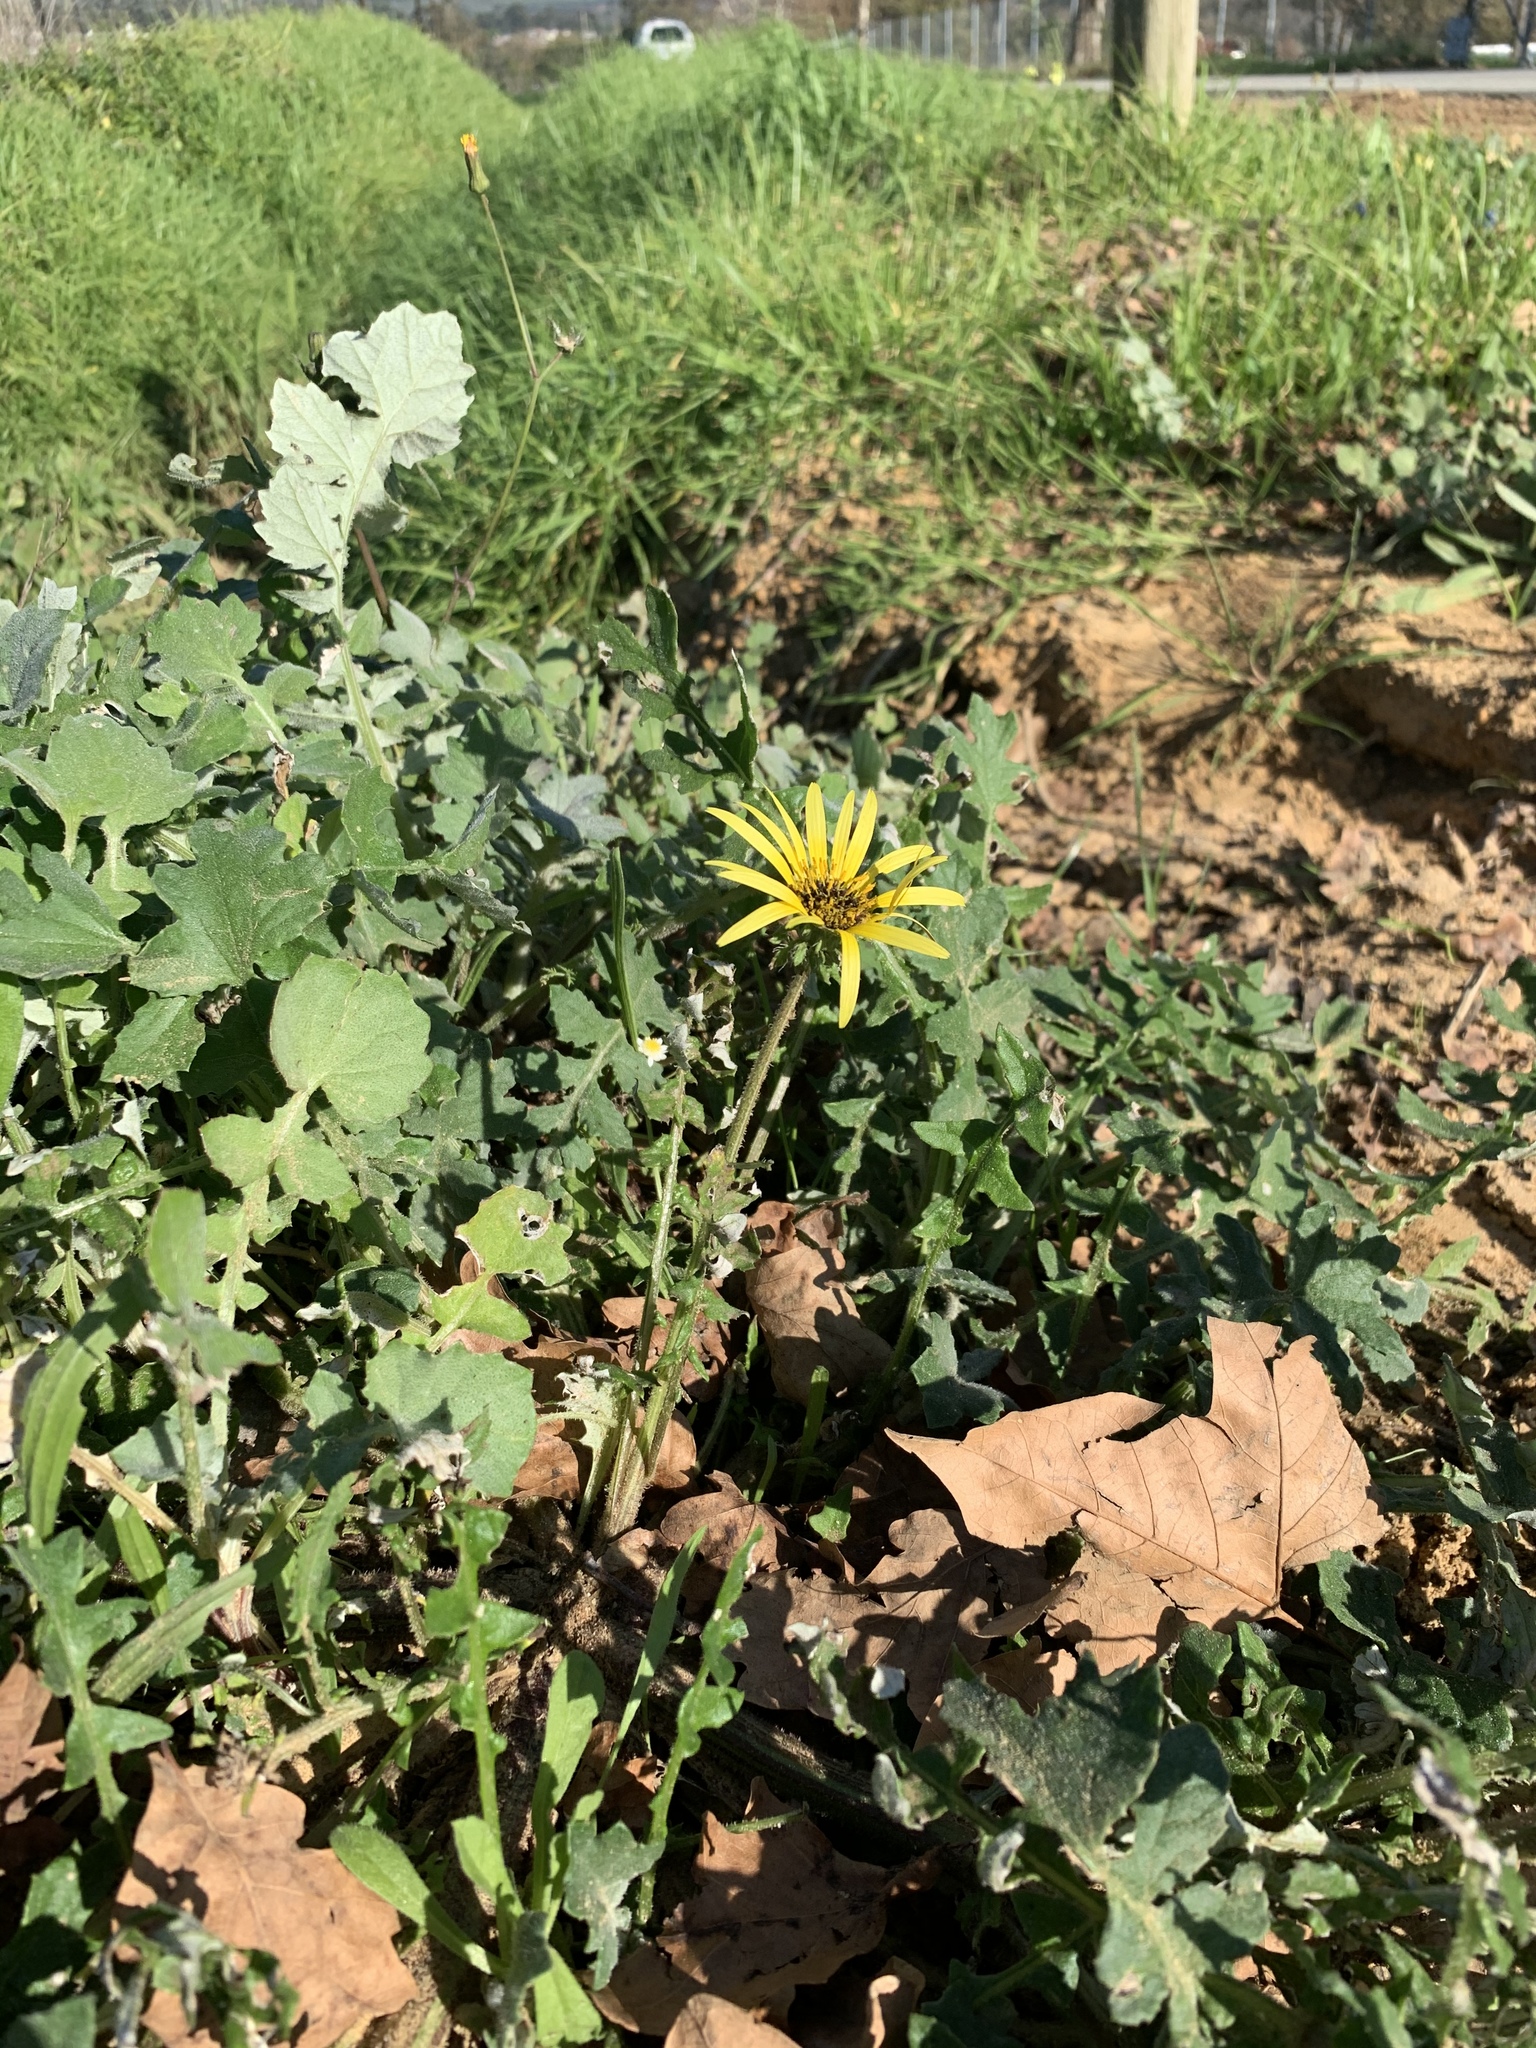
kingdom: Plantae
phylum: Tracheophyta
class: Magnoliopsida
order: Asterales
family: Asteraceae
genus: Arctotheca
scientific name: Arctotheca calendula
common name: Capeweed
